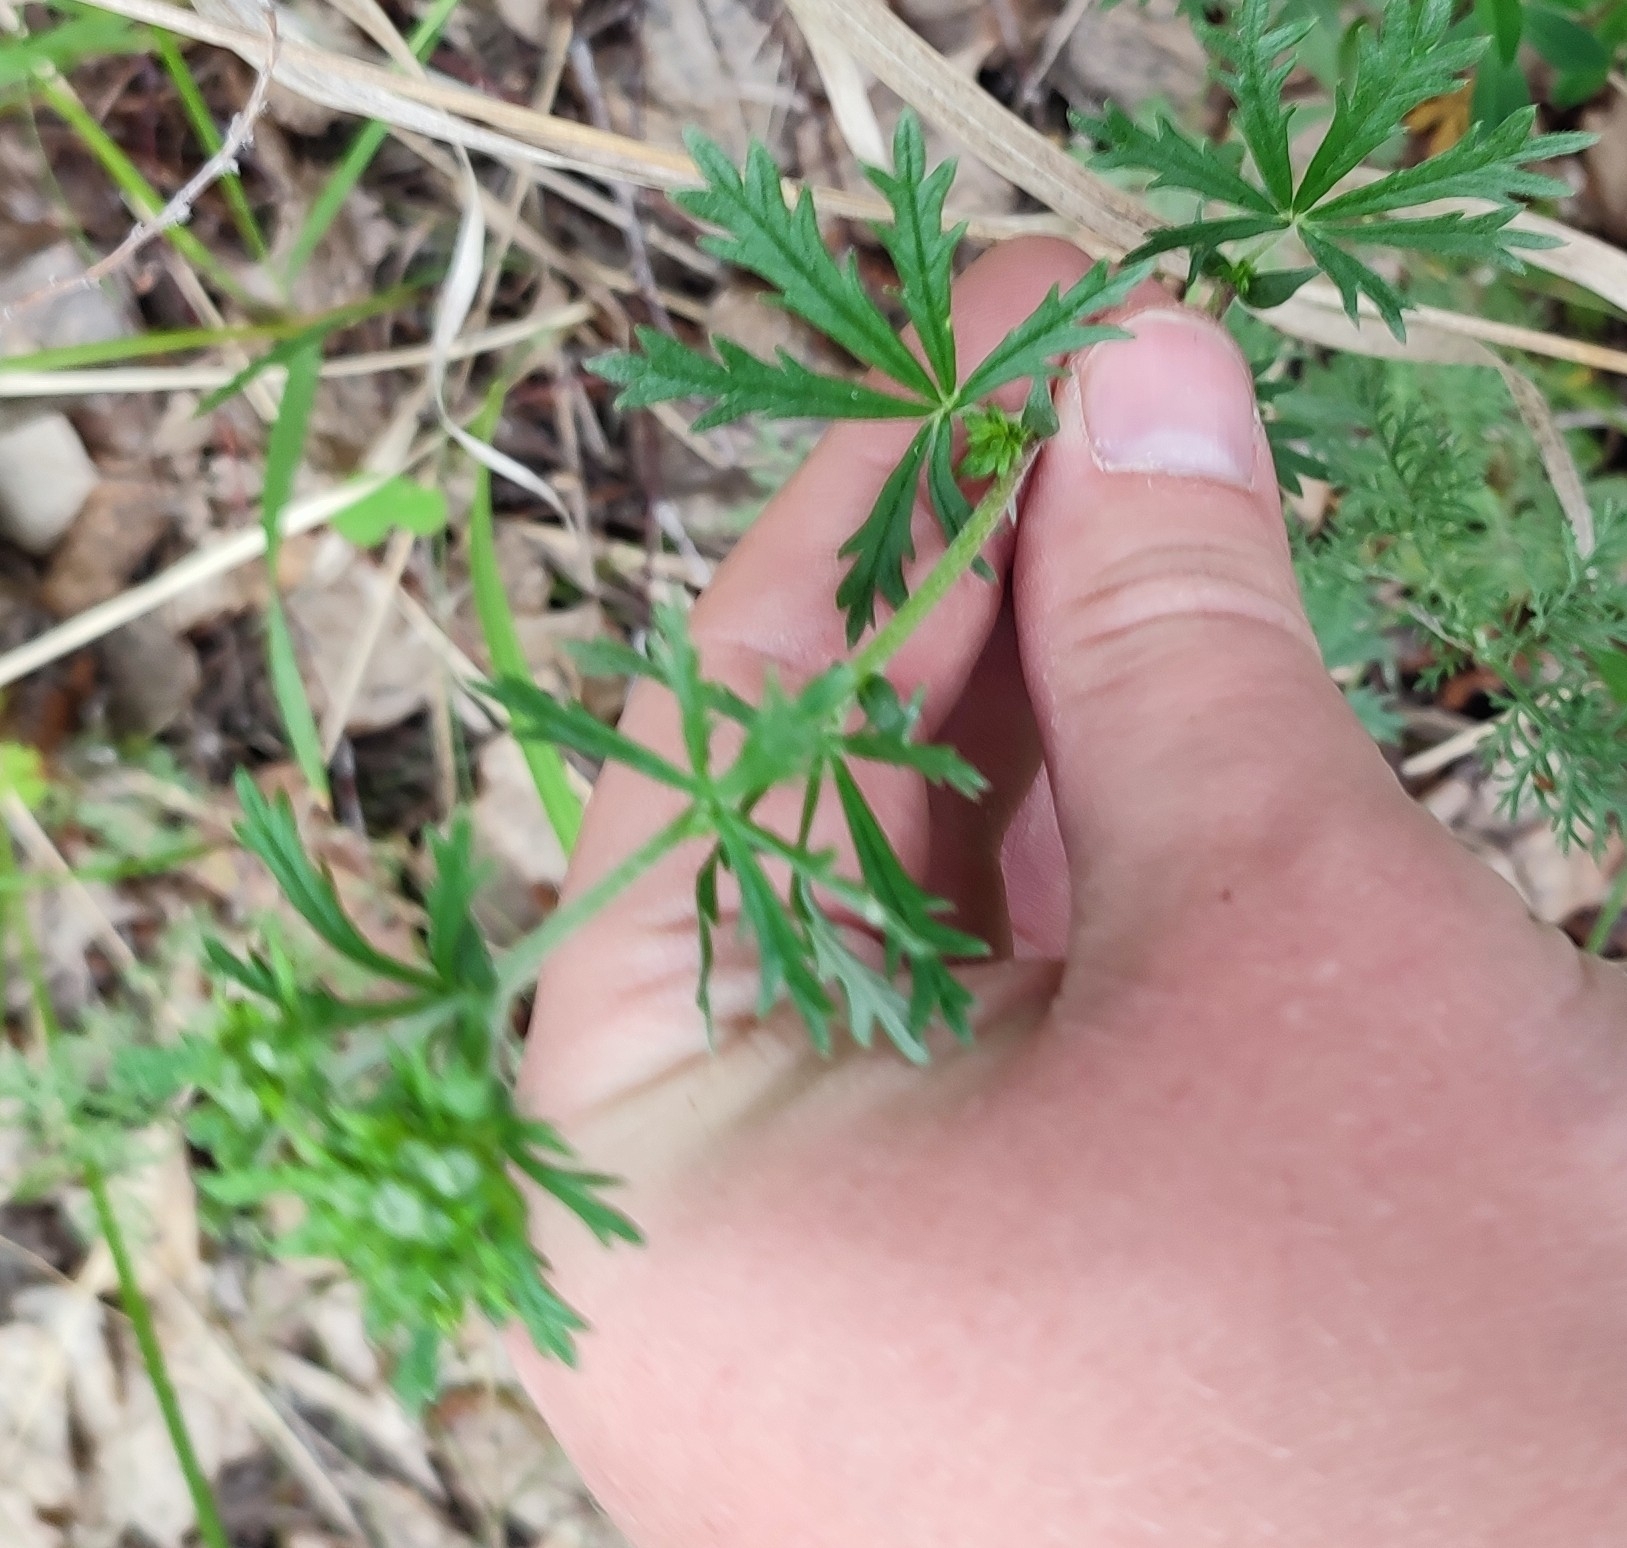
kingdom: Plantae
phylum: Tracheophyta
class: Magnoliopsida
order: Rosales
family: Rosaceae
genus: Potentilla
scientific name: Potentilla argentea
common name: Hoary cinquefoil
